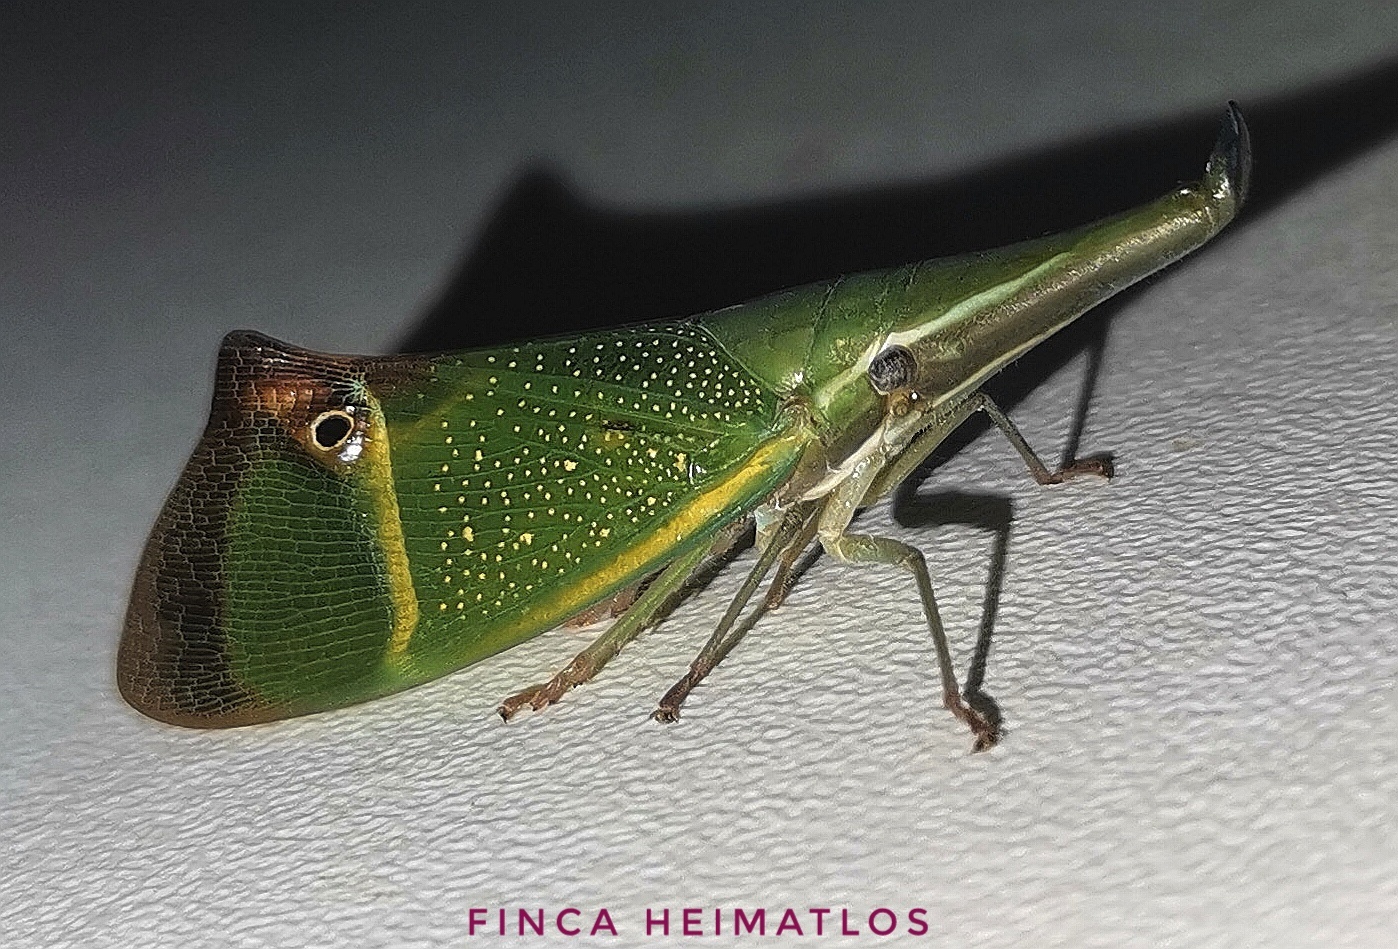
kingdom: Animalia
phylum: Arthropoda
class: Insecta
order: Hemiptera
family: Fulgoridae
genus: Odontoptera
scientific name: Odontoptera carrenoi
